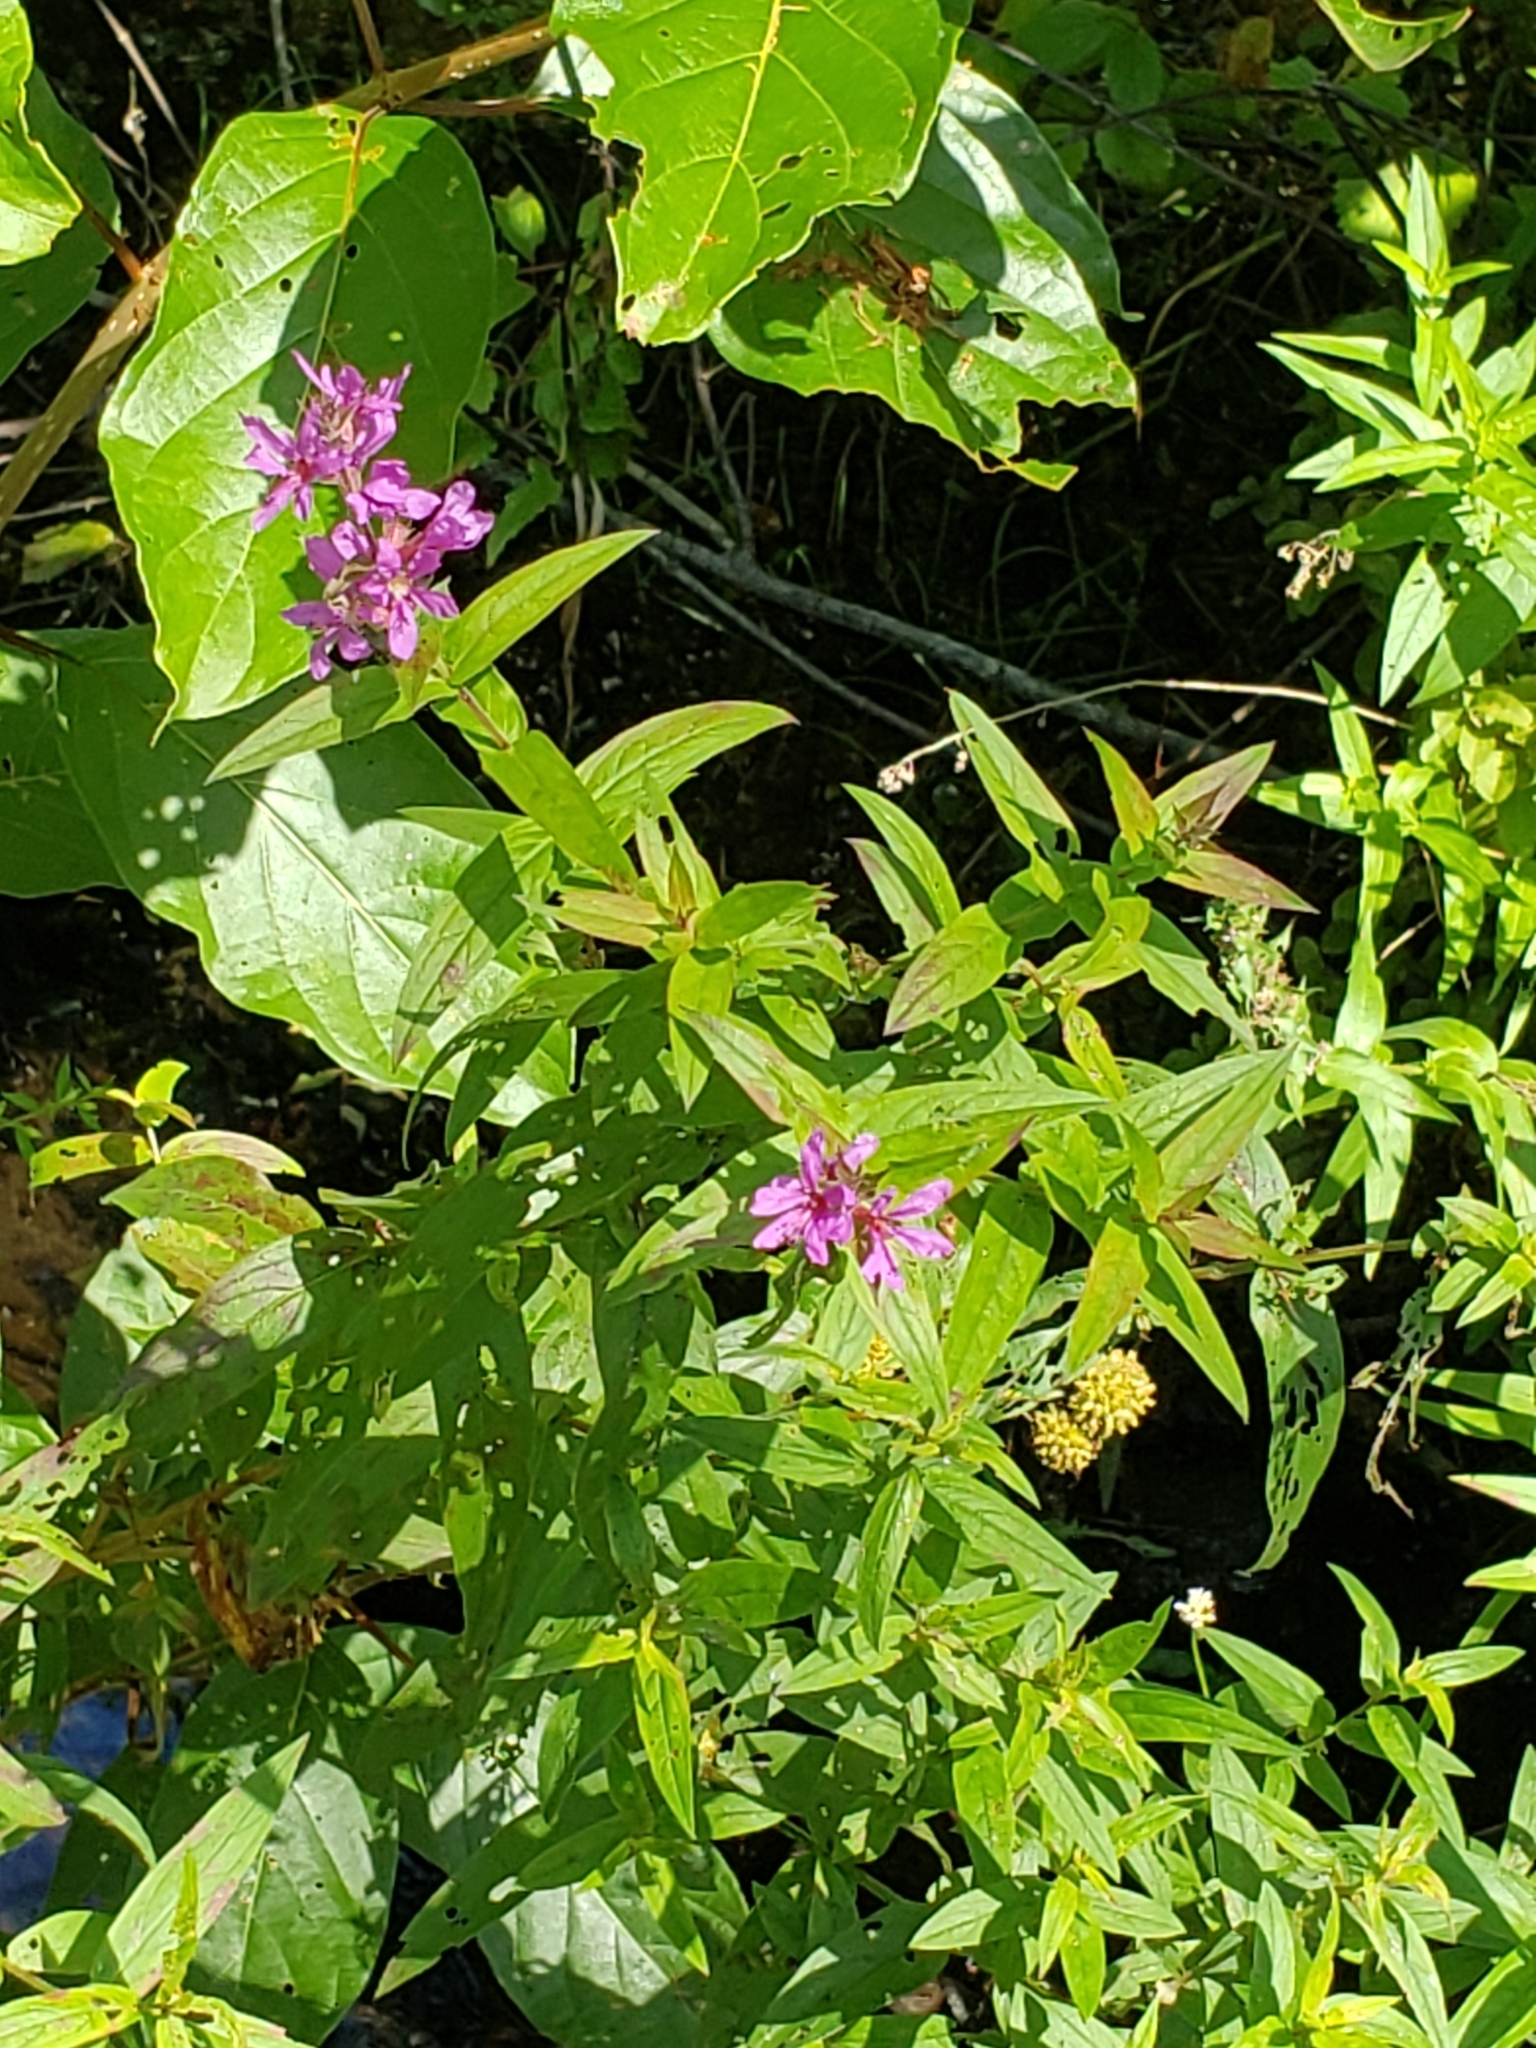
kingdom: Plantae
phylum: Tracheophyta
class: Magnoliopsida
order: Myrtales
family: Lythraceae
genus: Lythrum
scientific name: Lythrum salicaria
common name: Purple loosestrife
